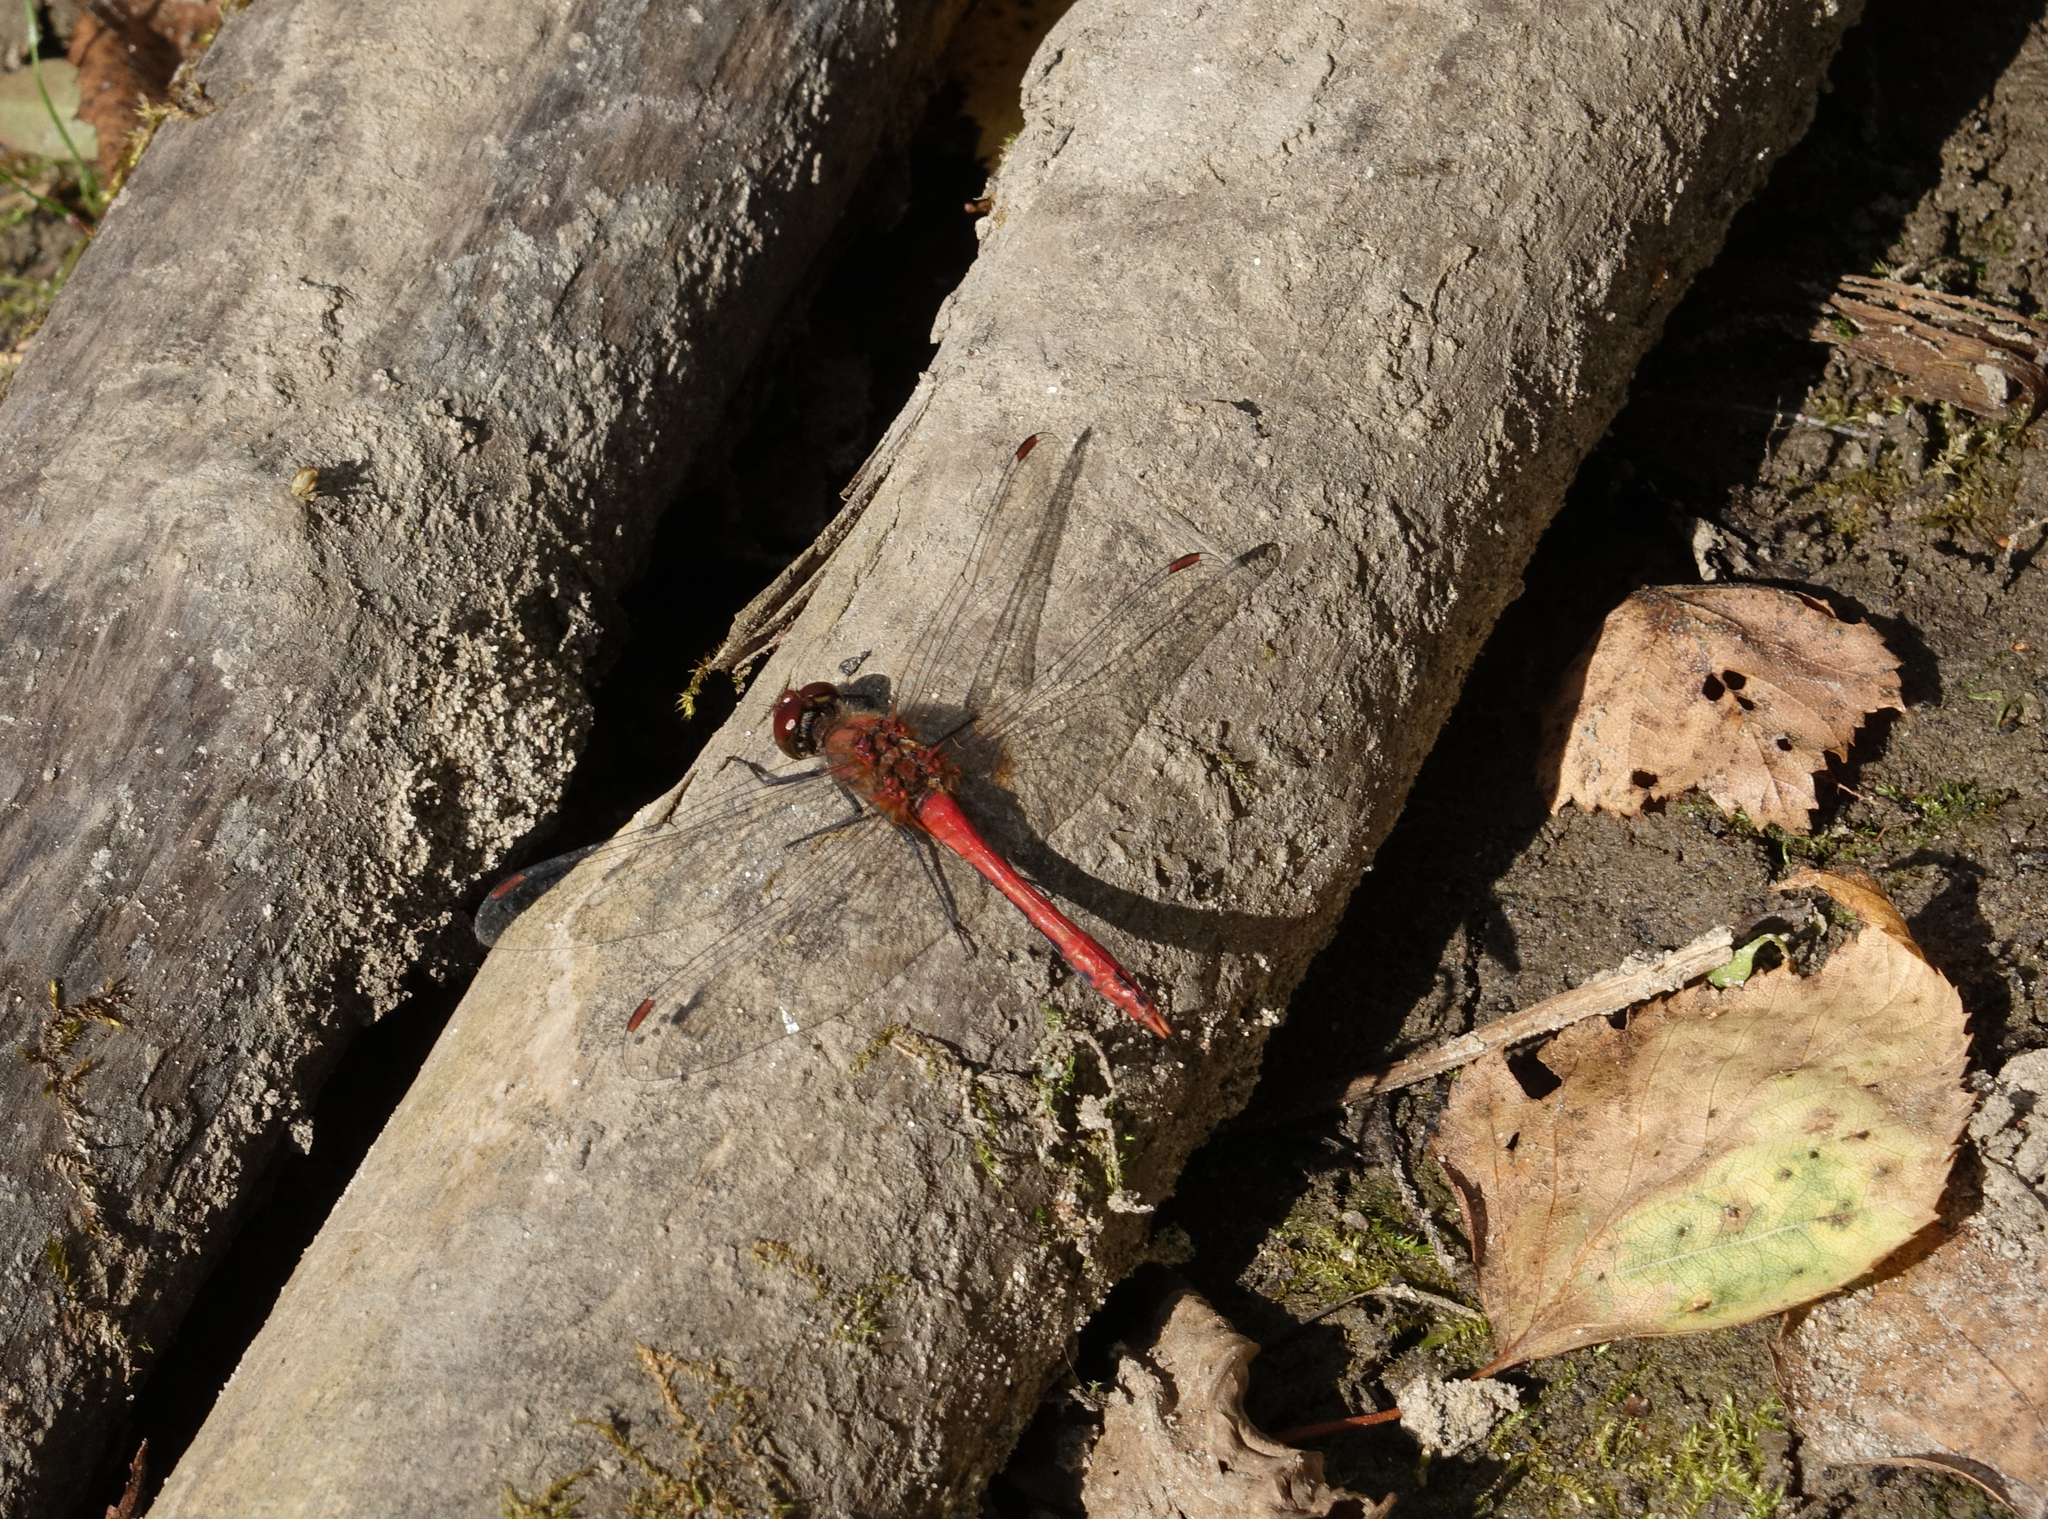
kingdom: Animalia
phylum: Arthropoda
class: Insecta
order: Odonata
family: Libellulidae
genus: Sympetrum
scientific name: Sympetrum sanguineum
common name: Ruddy darter
